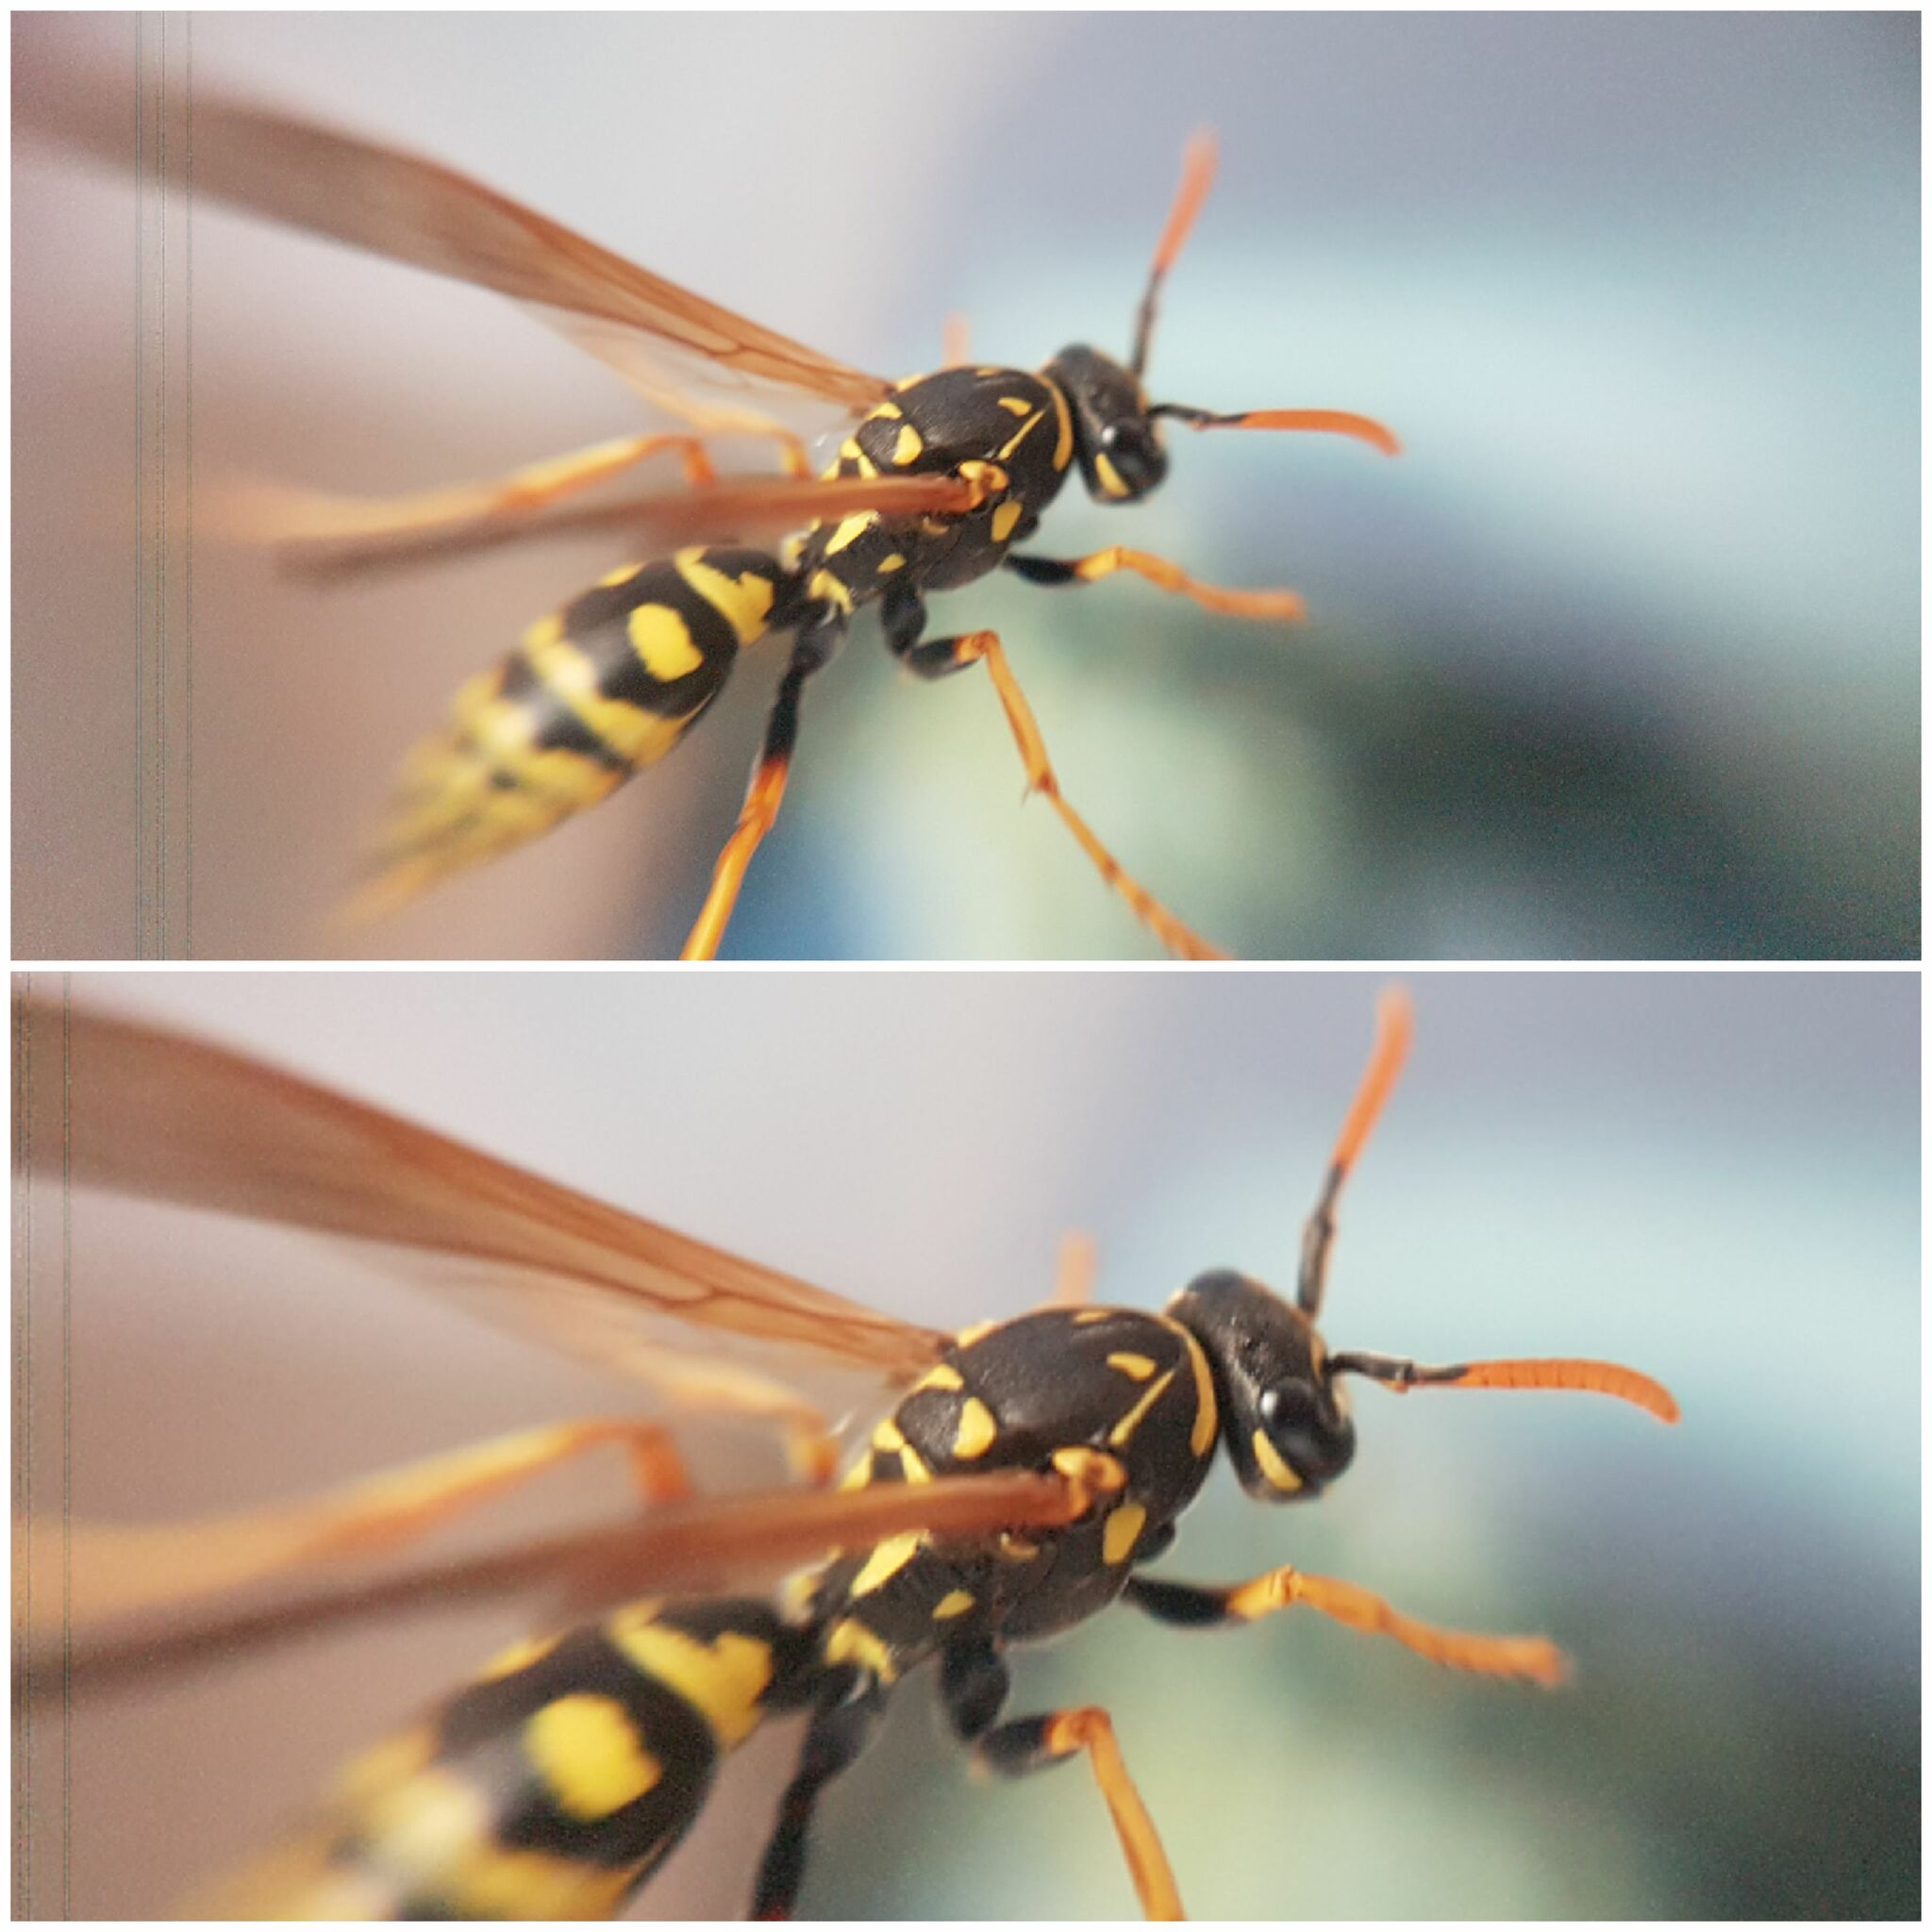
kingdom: Animalia
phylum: Arthropoda
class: Insecta
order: Hymenoptera
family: Eumenidae
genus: Polistes
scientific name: Polistes dominula
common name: Paper wasp
